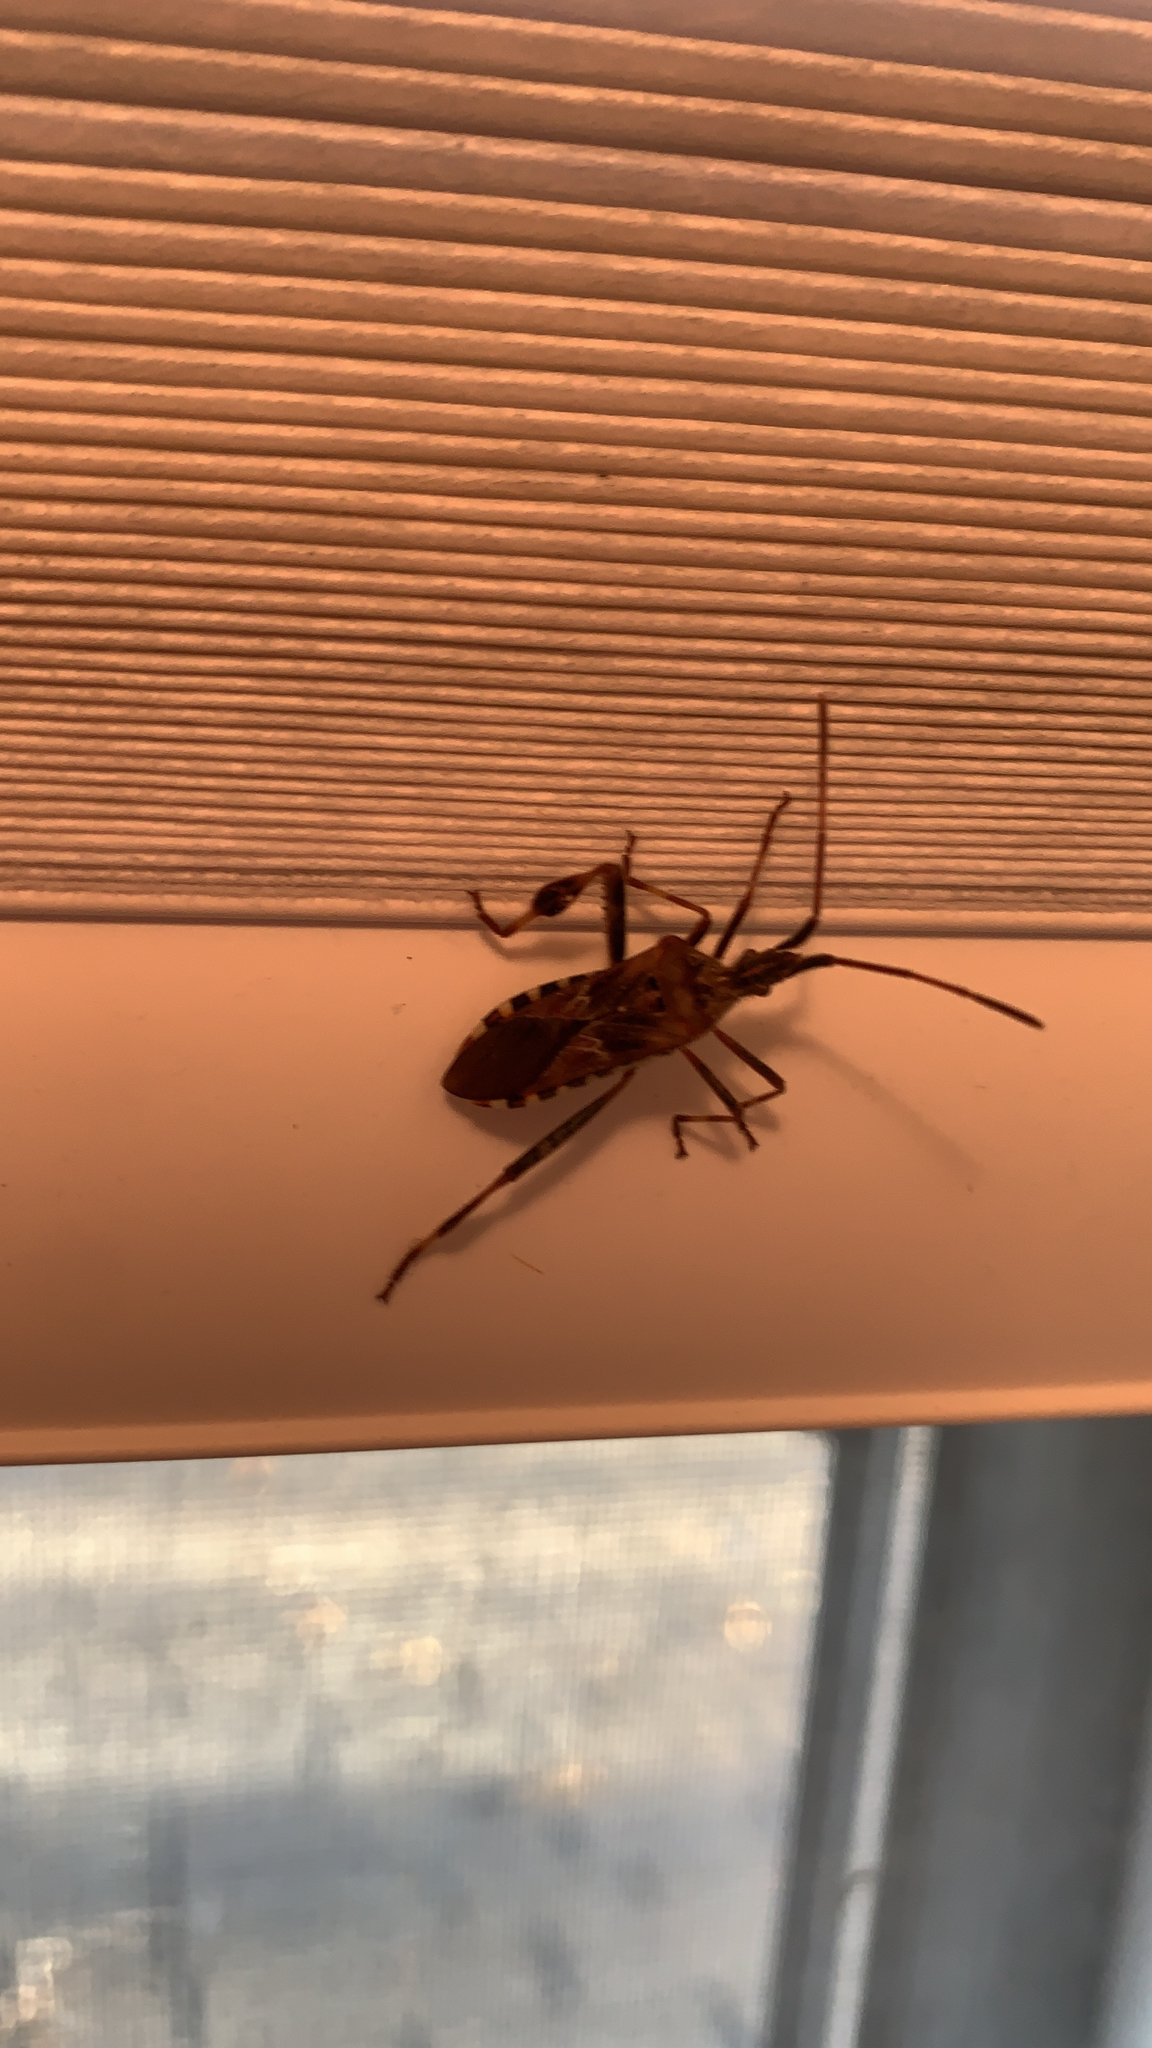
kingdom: Animalia
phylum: Arthropoda
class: Insecta
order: Hemiptera
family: Coreidae
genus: Leptoglossus
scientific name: Leptoglossus occidentalis
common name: Western conifer-seed bug
